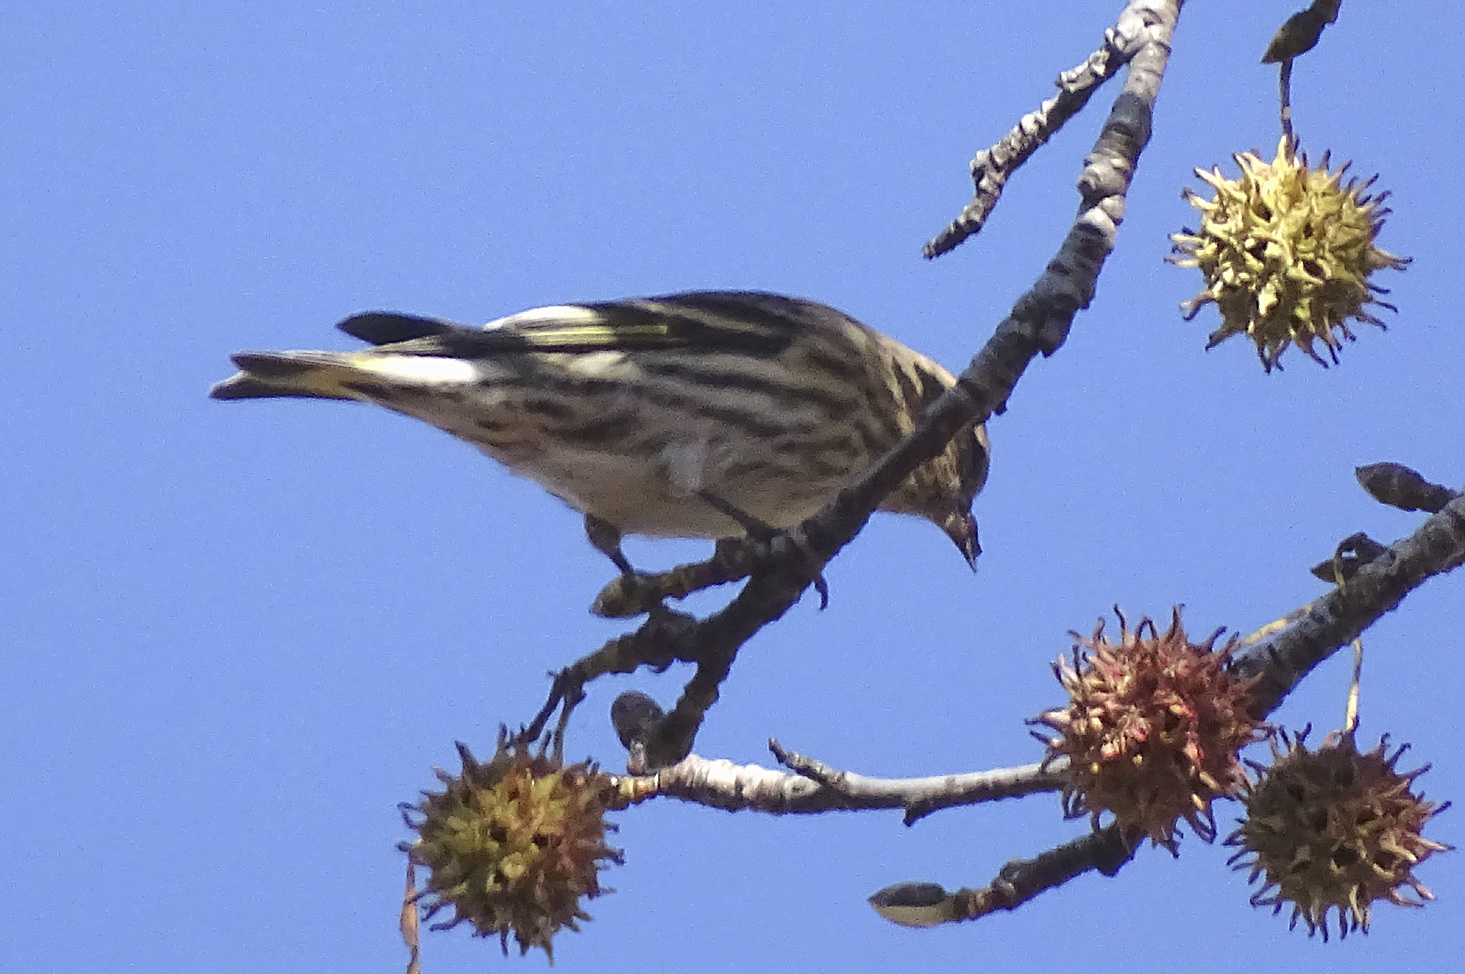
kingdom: Animalia
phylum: Chordata
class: Aves
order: Passeriformes
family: Fringillidae
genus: Spinus
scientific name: Spinus pinus
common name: Pine siskin
